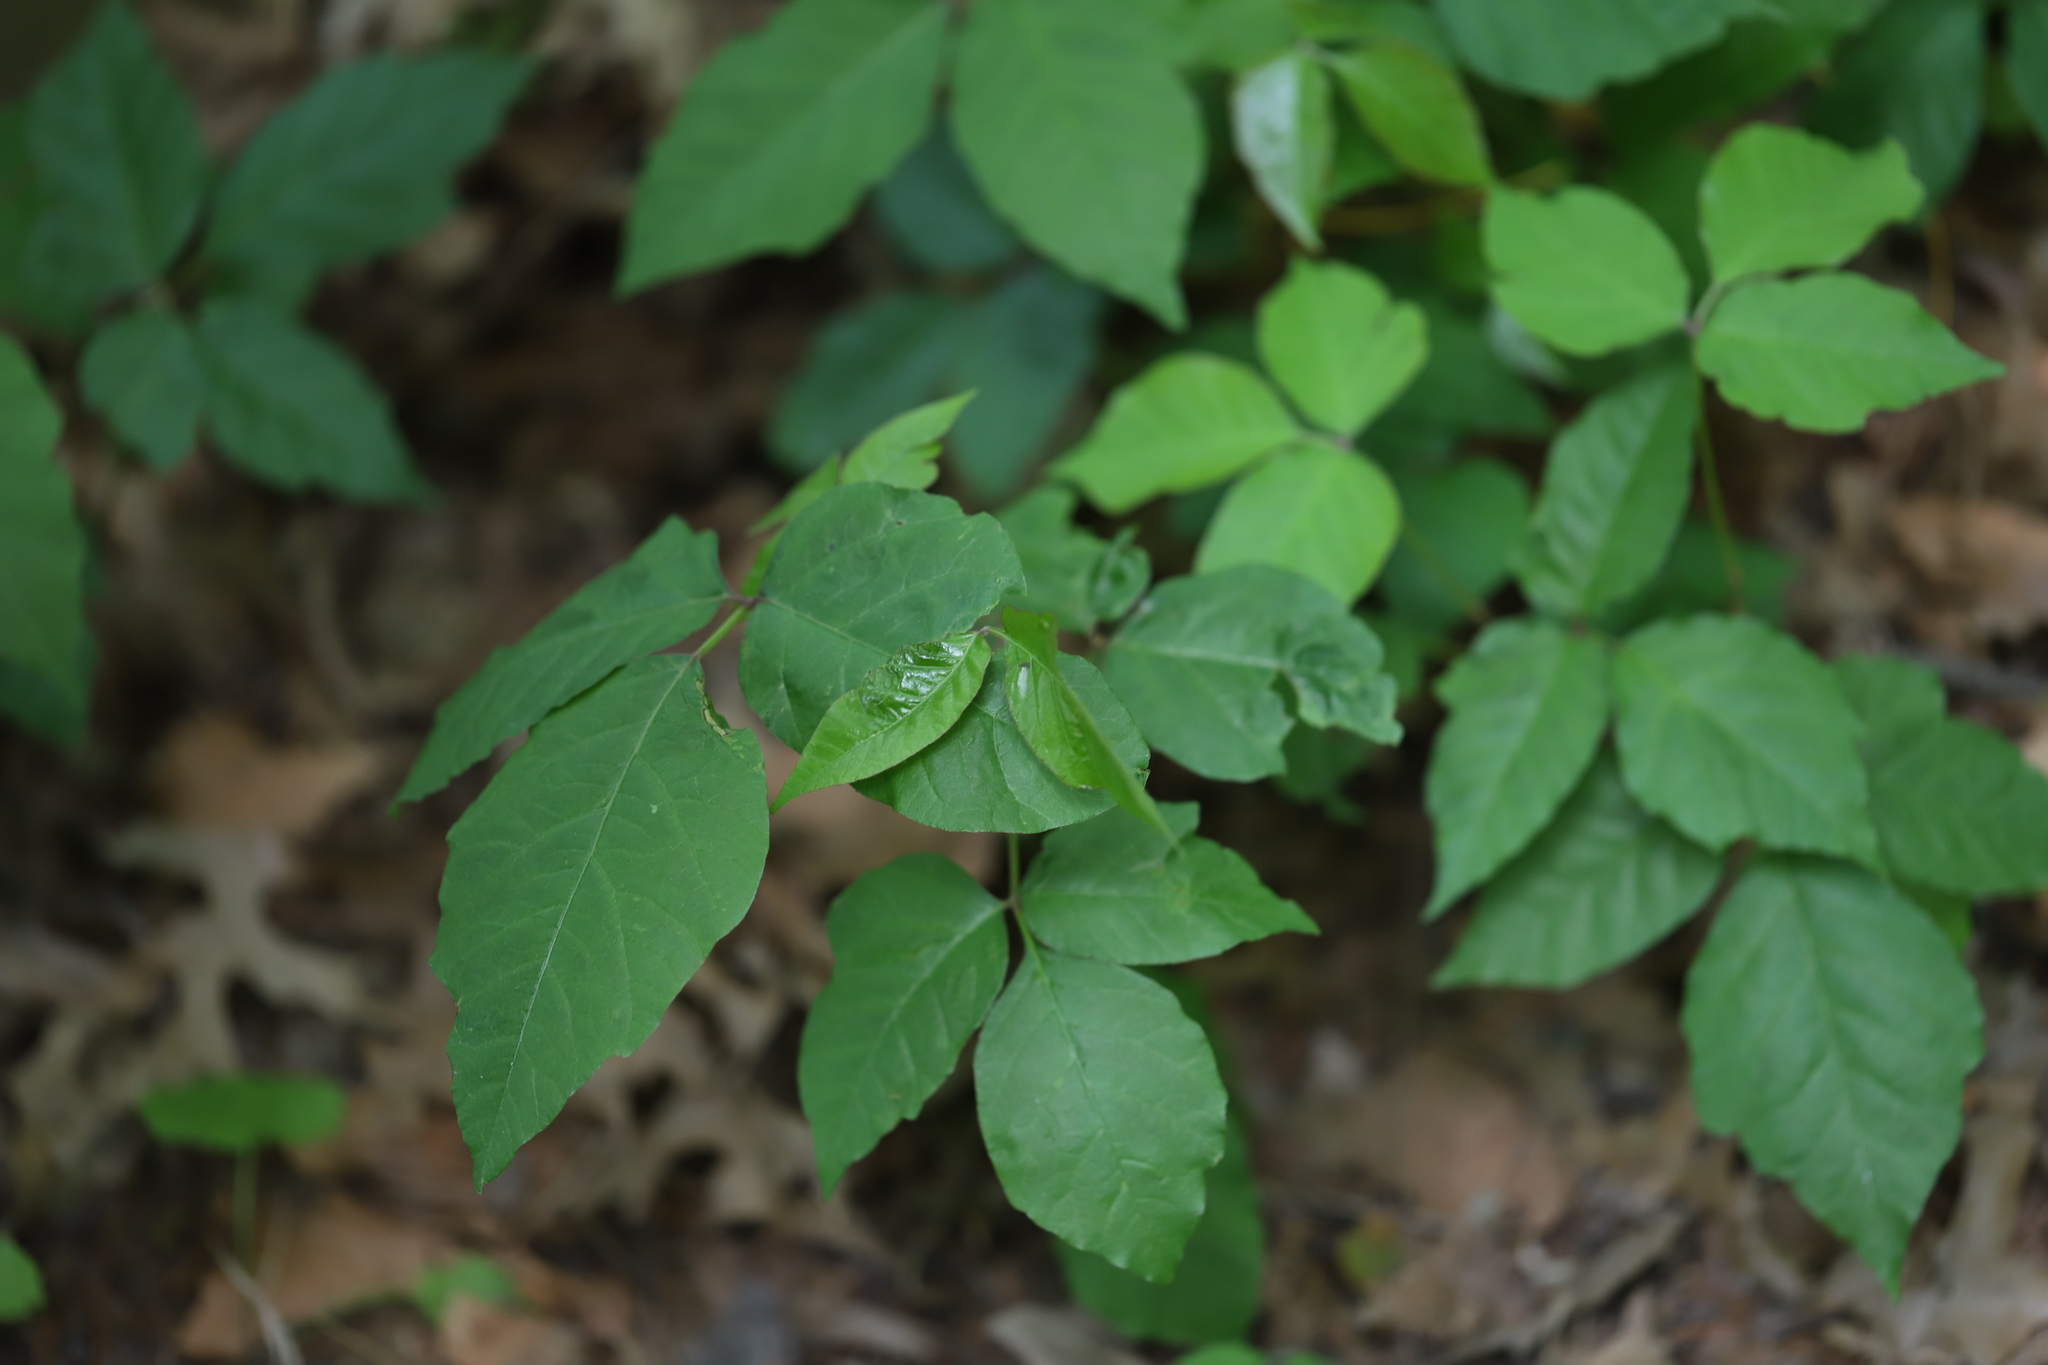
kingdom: Plantae
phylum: Tracheophyta
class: Magnoliopsida
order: Sapindales
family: Anacardiaceae
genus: Toxicodendron
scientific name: Toxicodendron radicans
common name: Poison ivy
